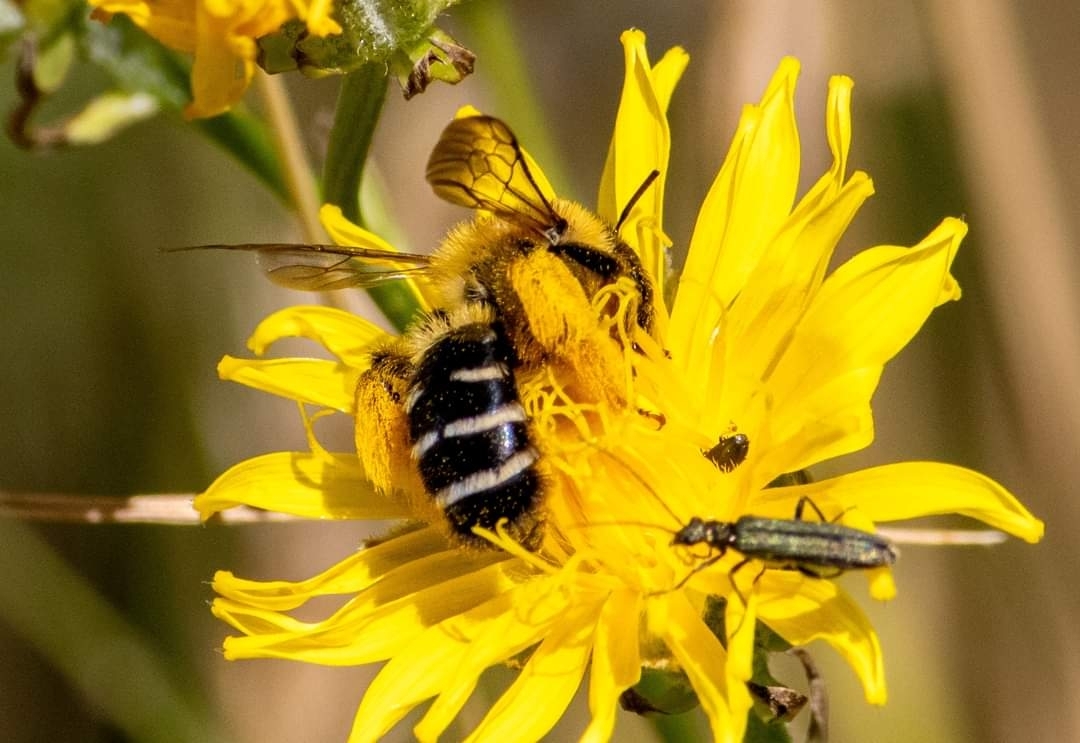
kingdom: Animalia
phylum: Arthropoda
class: Insecta
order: Hymenoptera
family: Melittidae
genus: Dasypoda
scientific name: Dasypoda hirtipes
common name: Pantaloon bee
